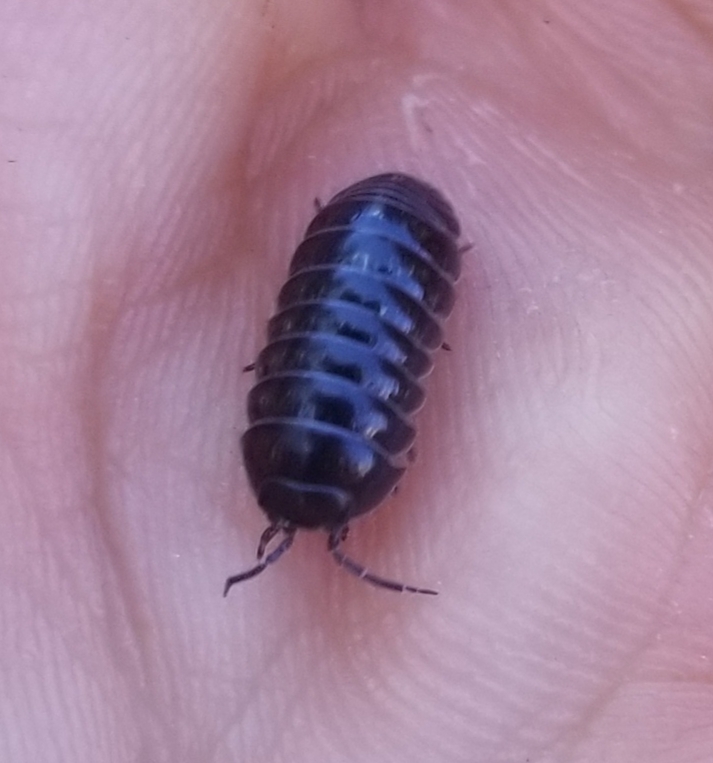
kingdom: Animalia
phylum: Arthropoda
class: Malacostraca
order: Isopoda
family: Armadillidiidae
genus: Armadillidium
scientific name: Armadillidium vulgare
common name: Common pill woodlouse
